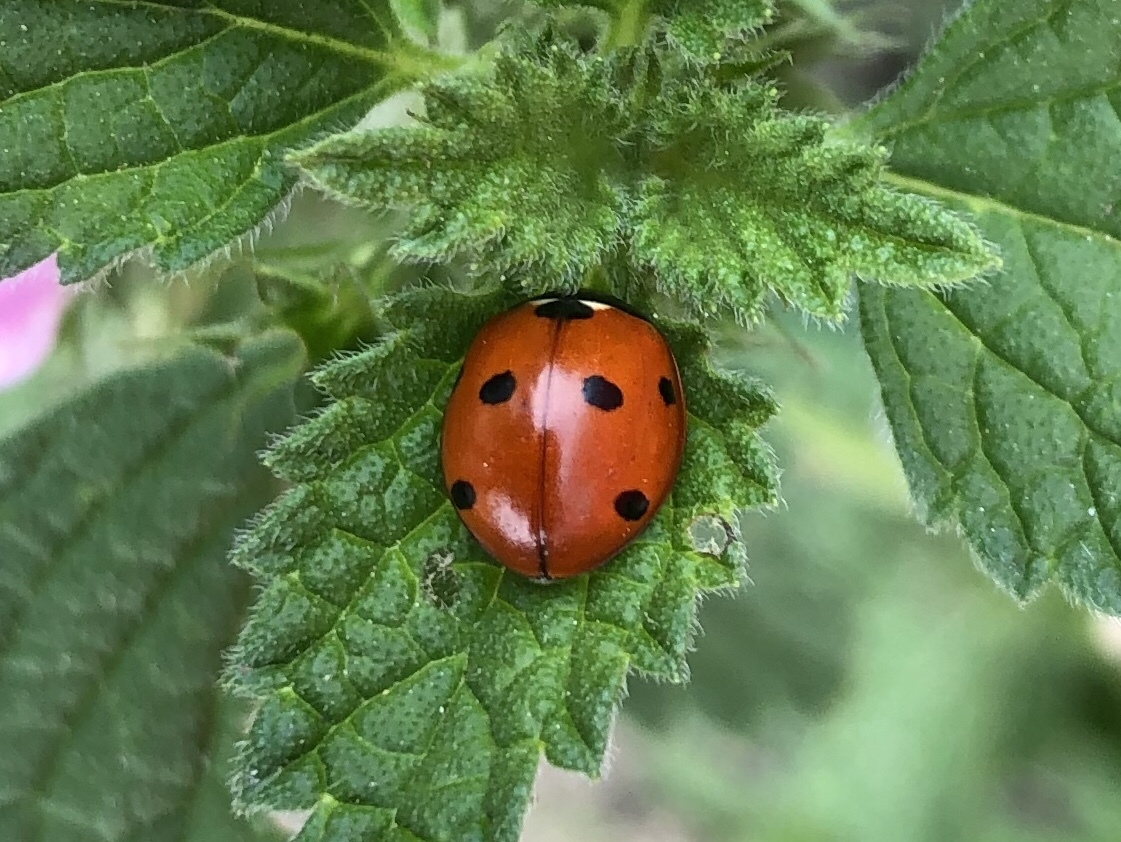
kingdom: Animalia
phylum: Arthropoda
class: Insecta
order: Coleoptera
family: Coccinellidae
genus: Coccinella
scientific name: Coccinella septempunctata
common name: Sevenspotted lady beetle
